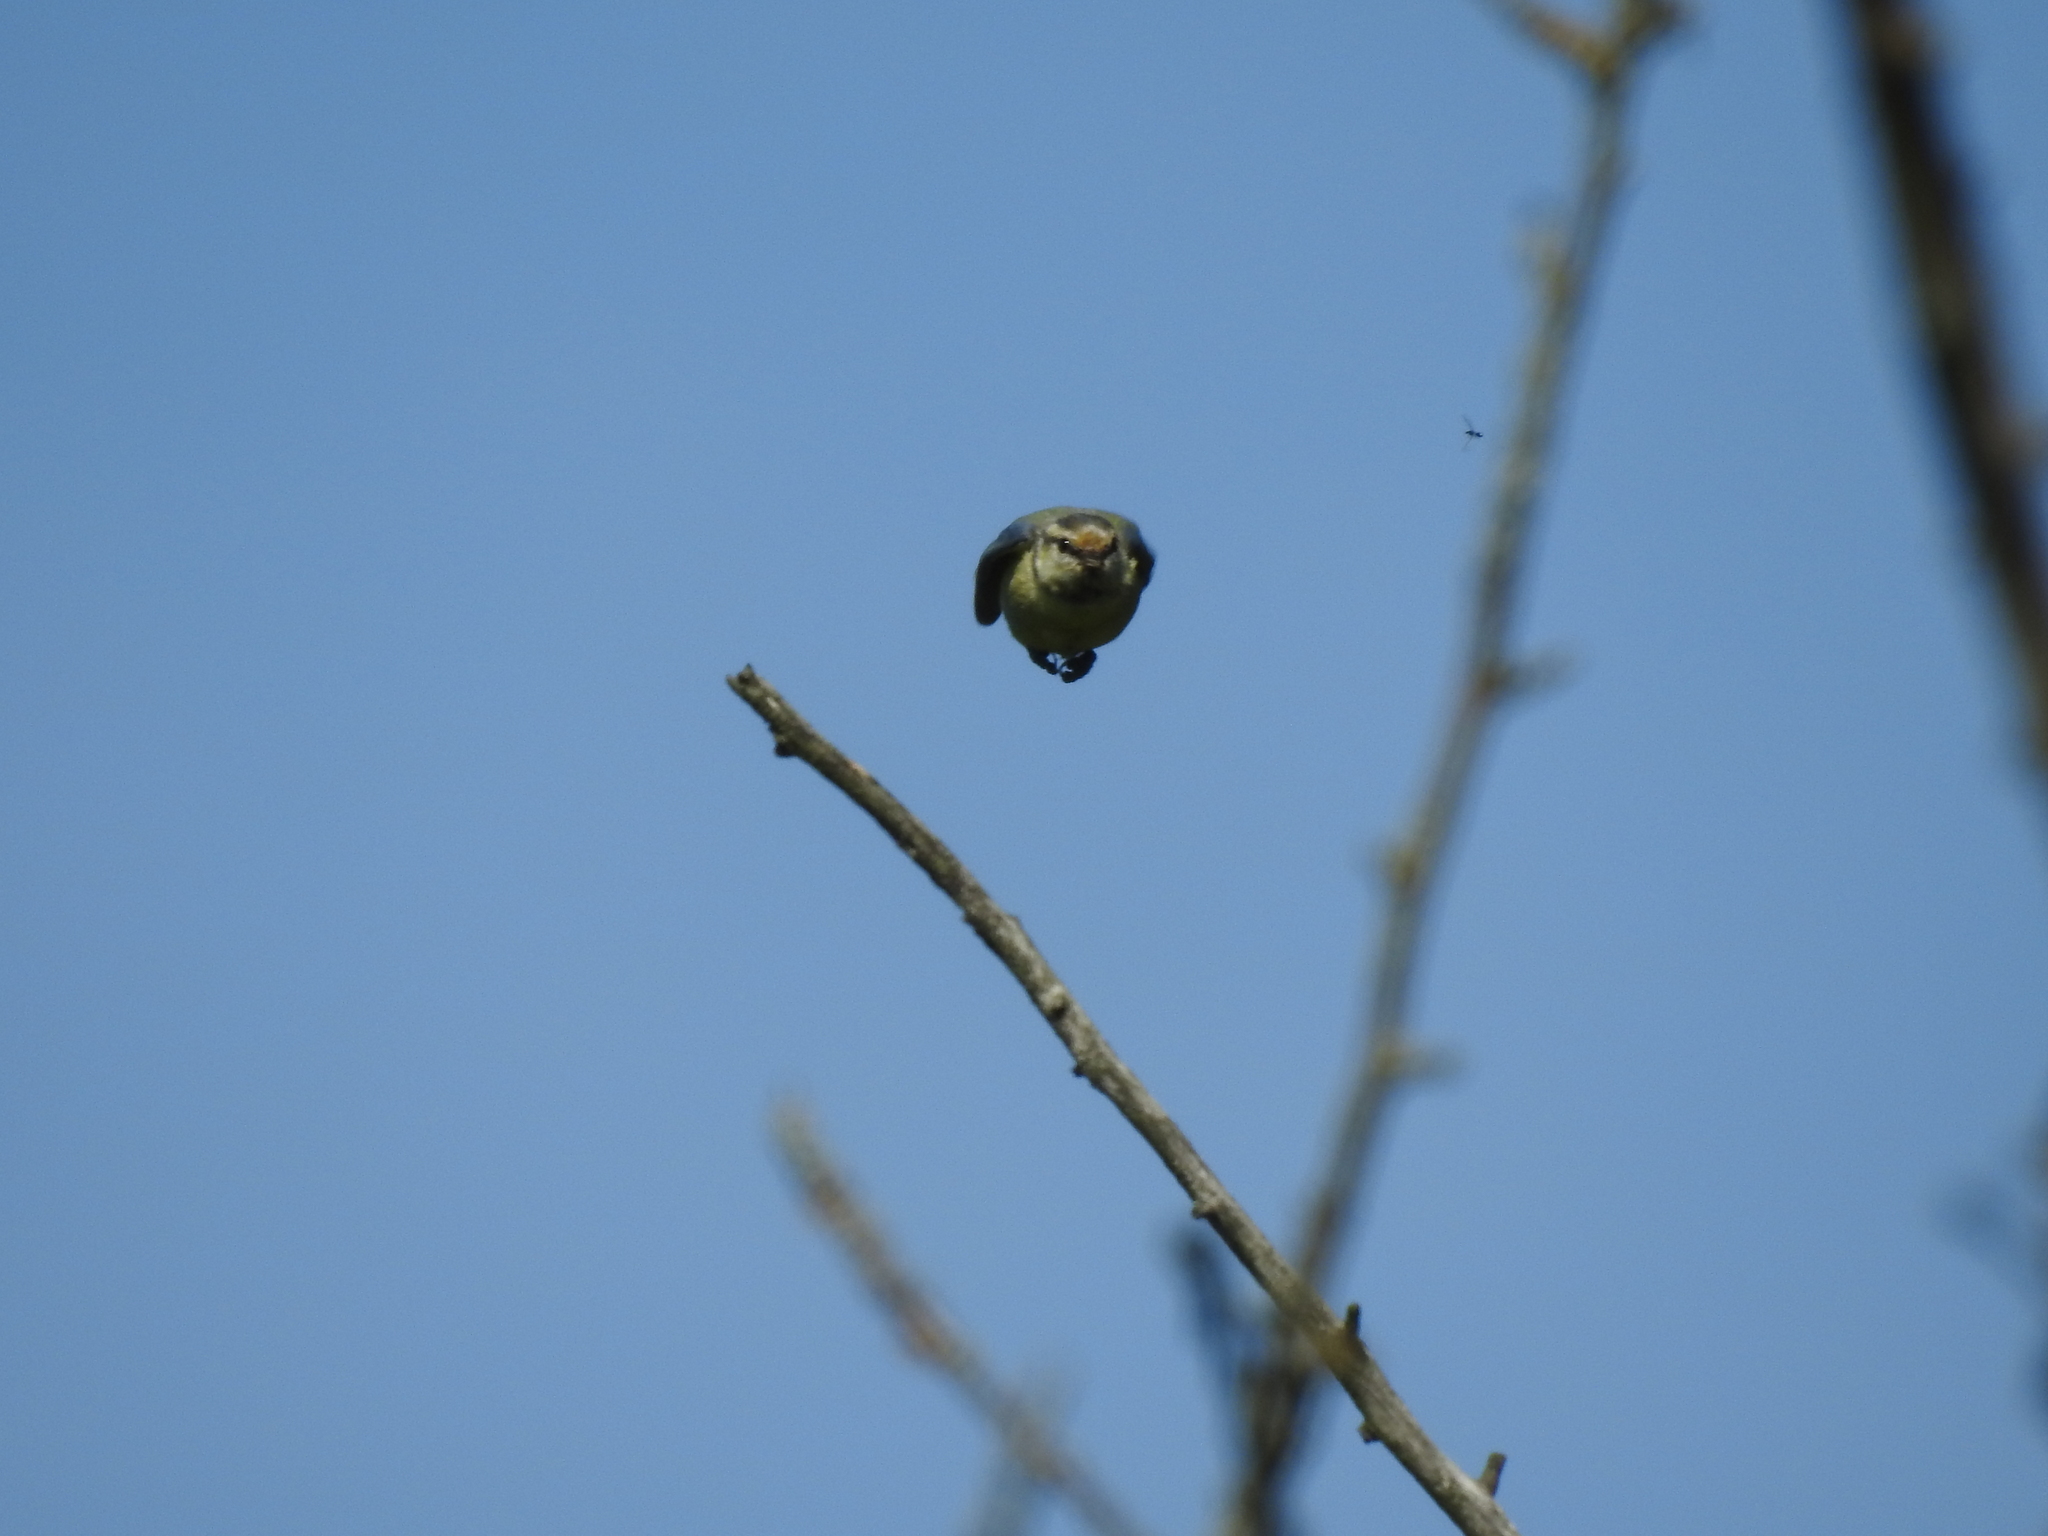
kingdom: Animalia
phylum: Chordata
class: Aves
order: Passeriformes
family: Paridae
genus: Cyanistes
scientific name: Cyanistes caeruleus
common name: Eurasian blue tit
